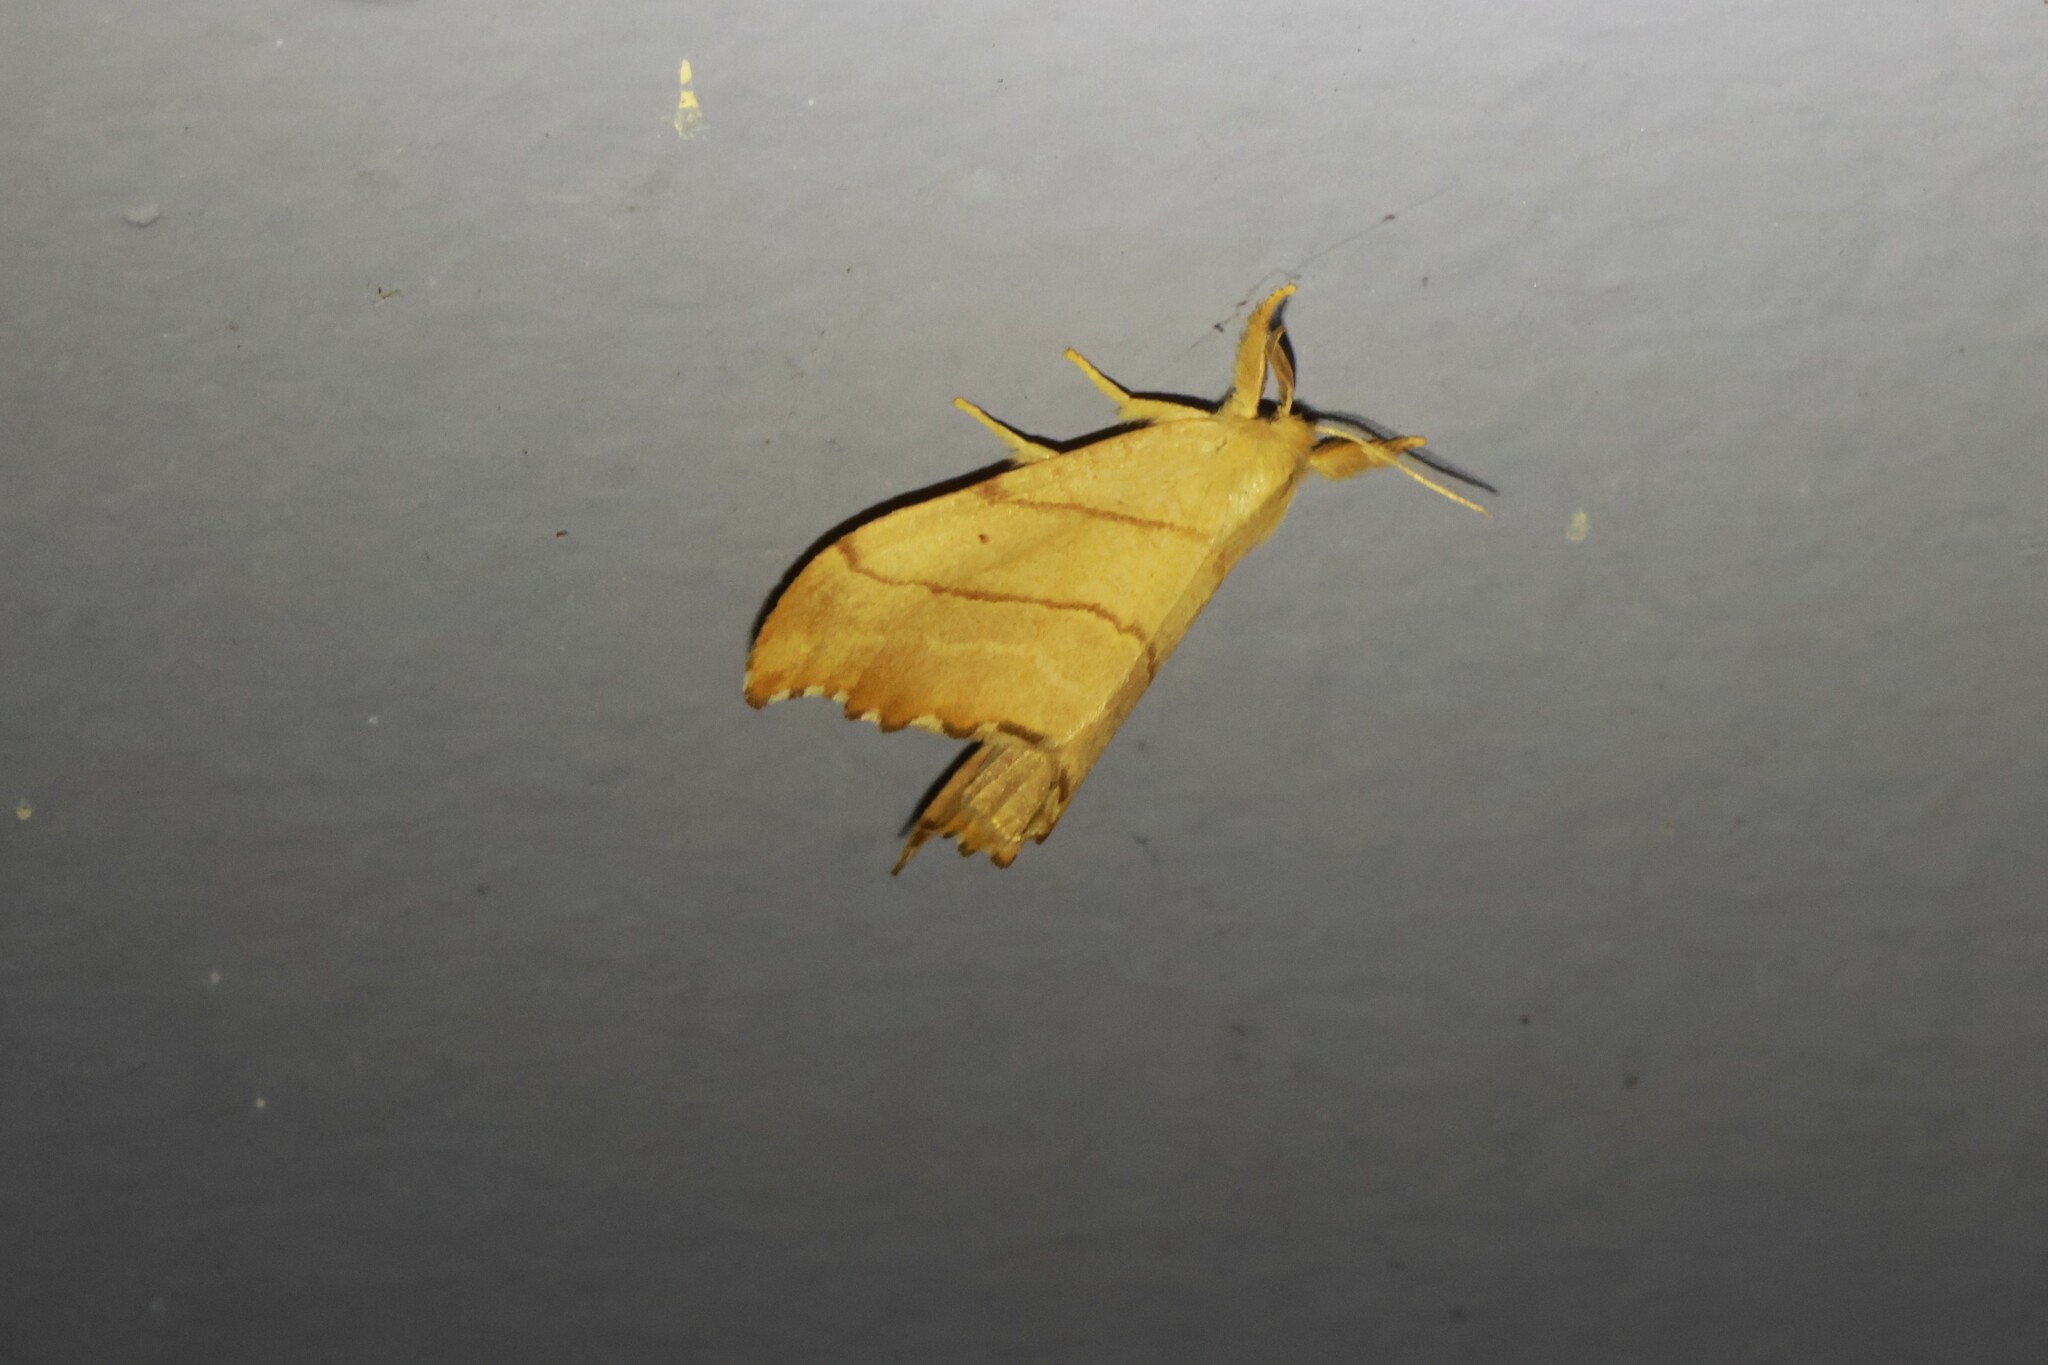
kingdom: Animalia
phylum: Arthropoda
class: Insecta
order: Lepidoptera
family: Drepanidae
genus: Falcaria
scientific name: Falcaria bilineata
